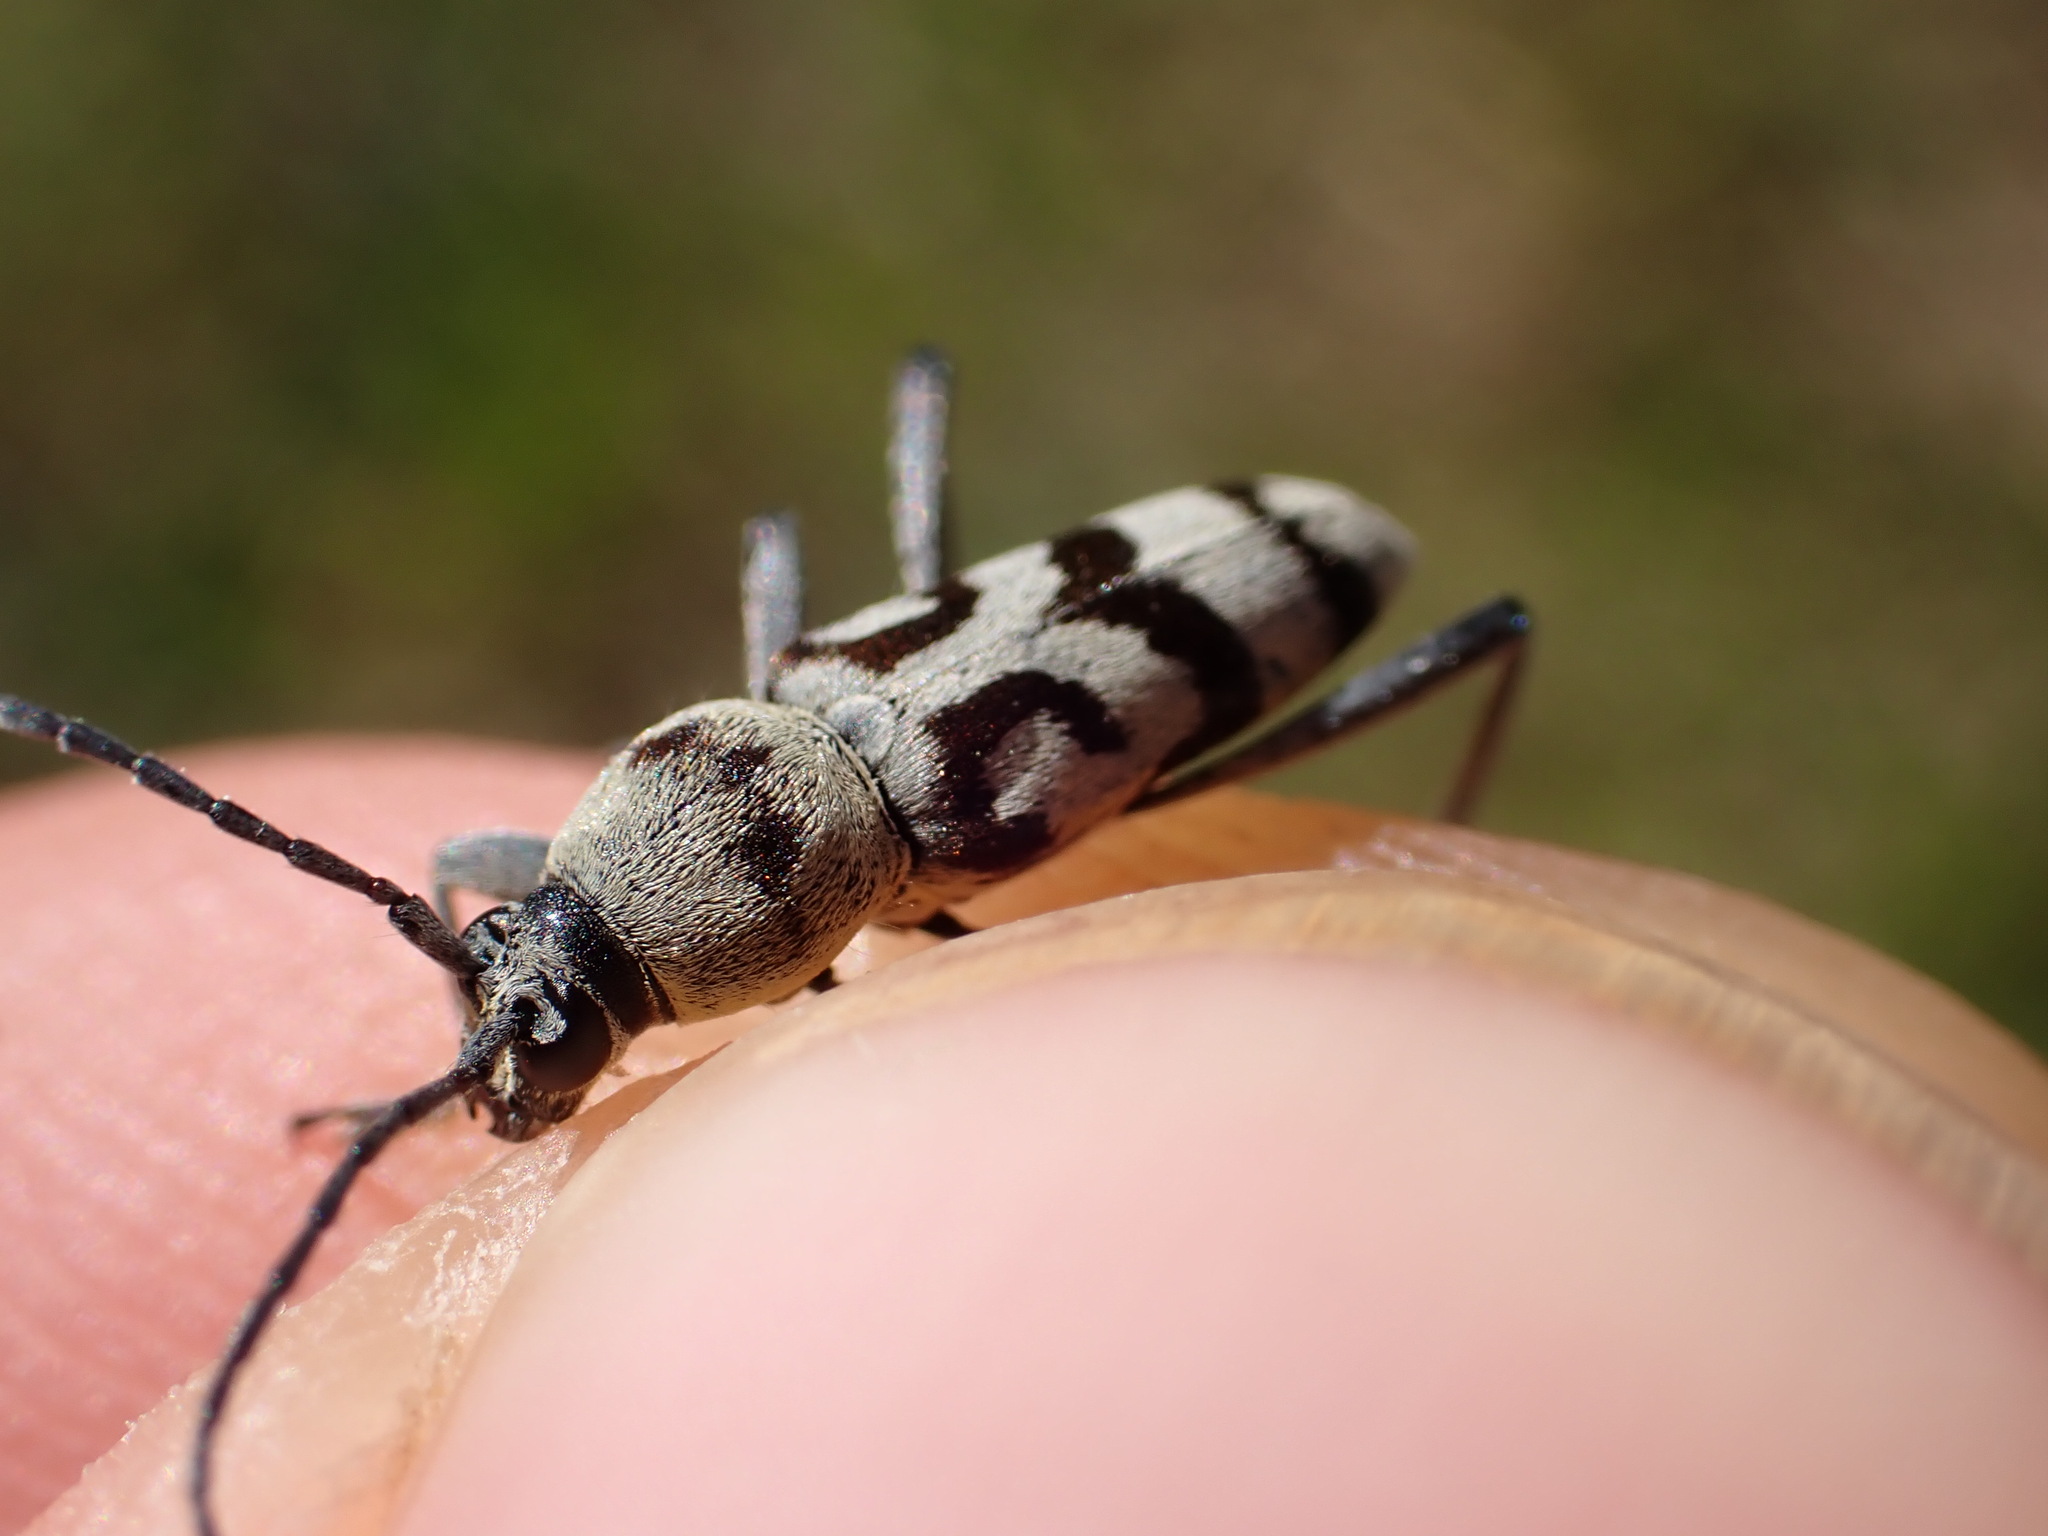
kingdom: Animalia
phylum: Arthropoda
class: Insecta
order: Coleoptera
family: Cerambycidae
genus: Chlorophorus
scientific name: Chlorophorus varius
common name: Grape wood borer
